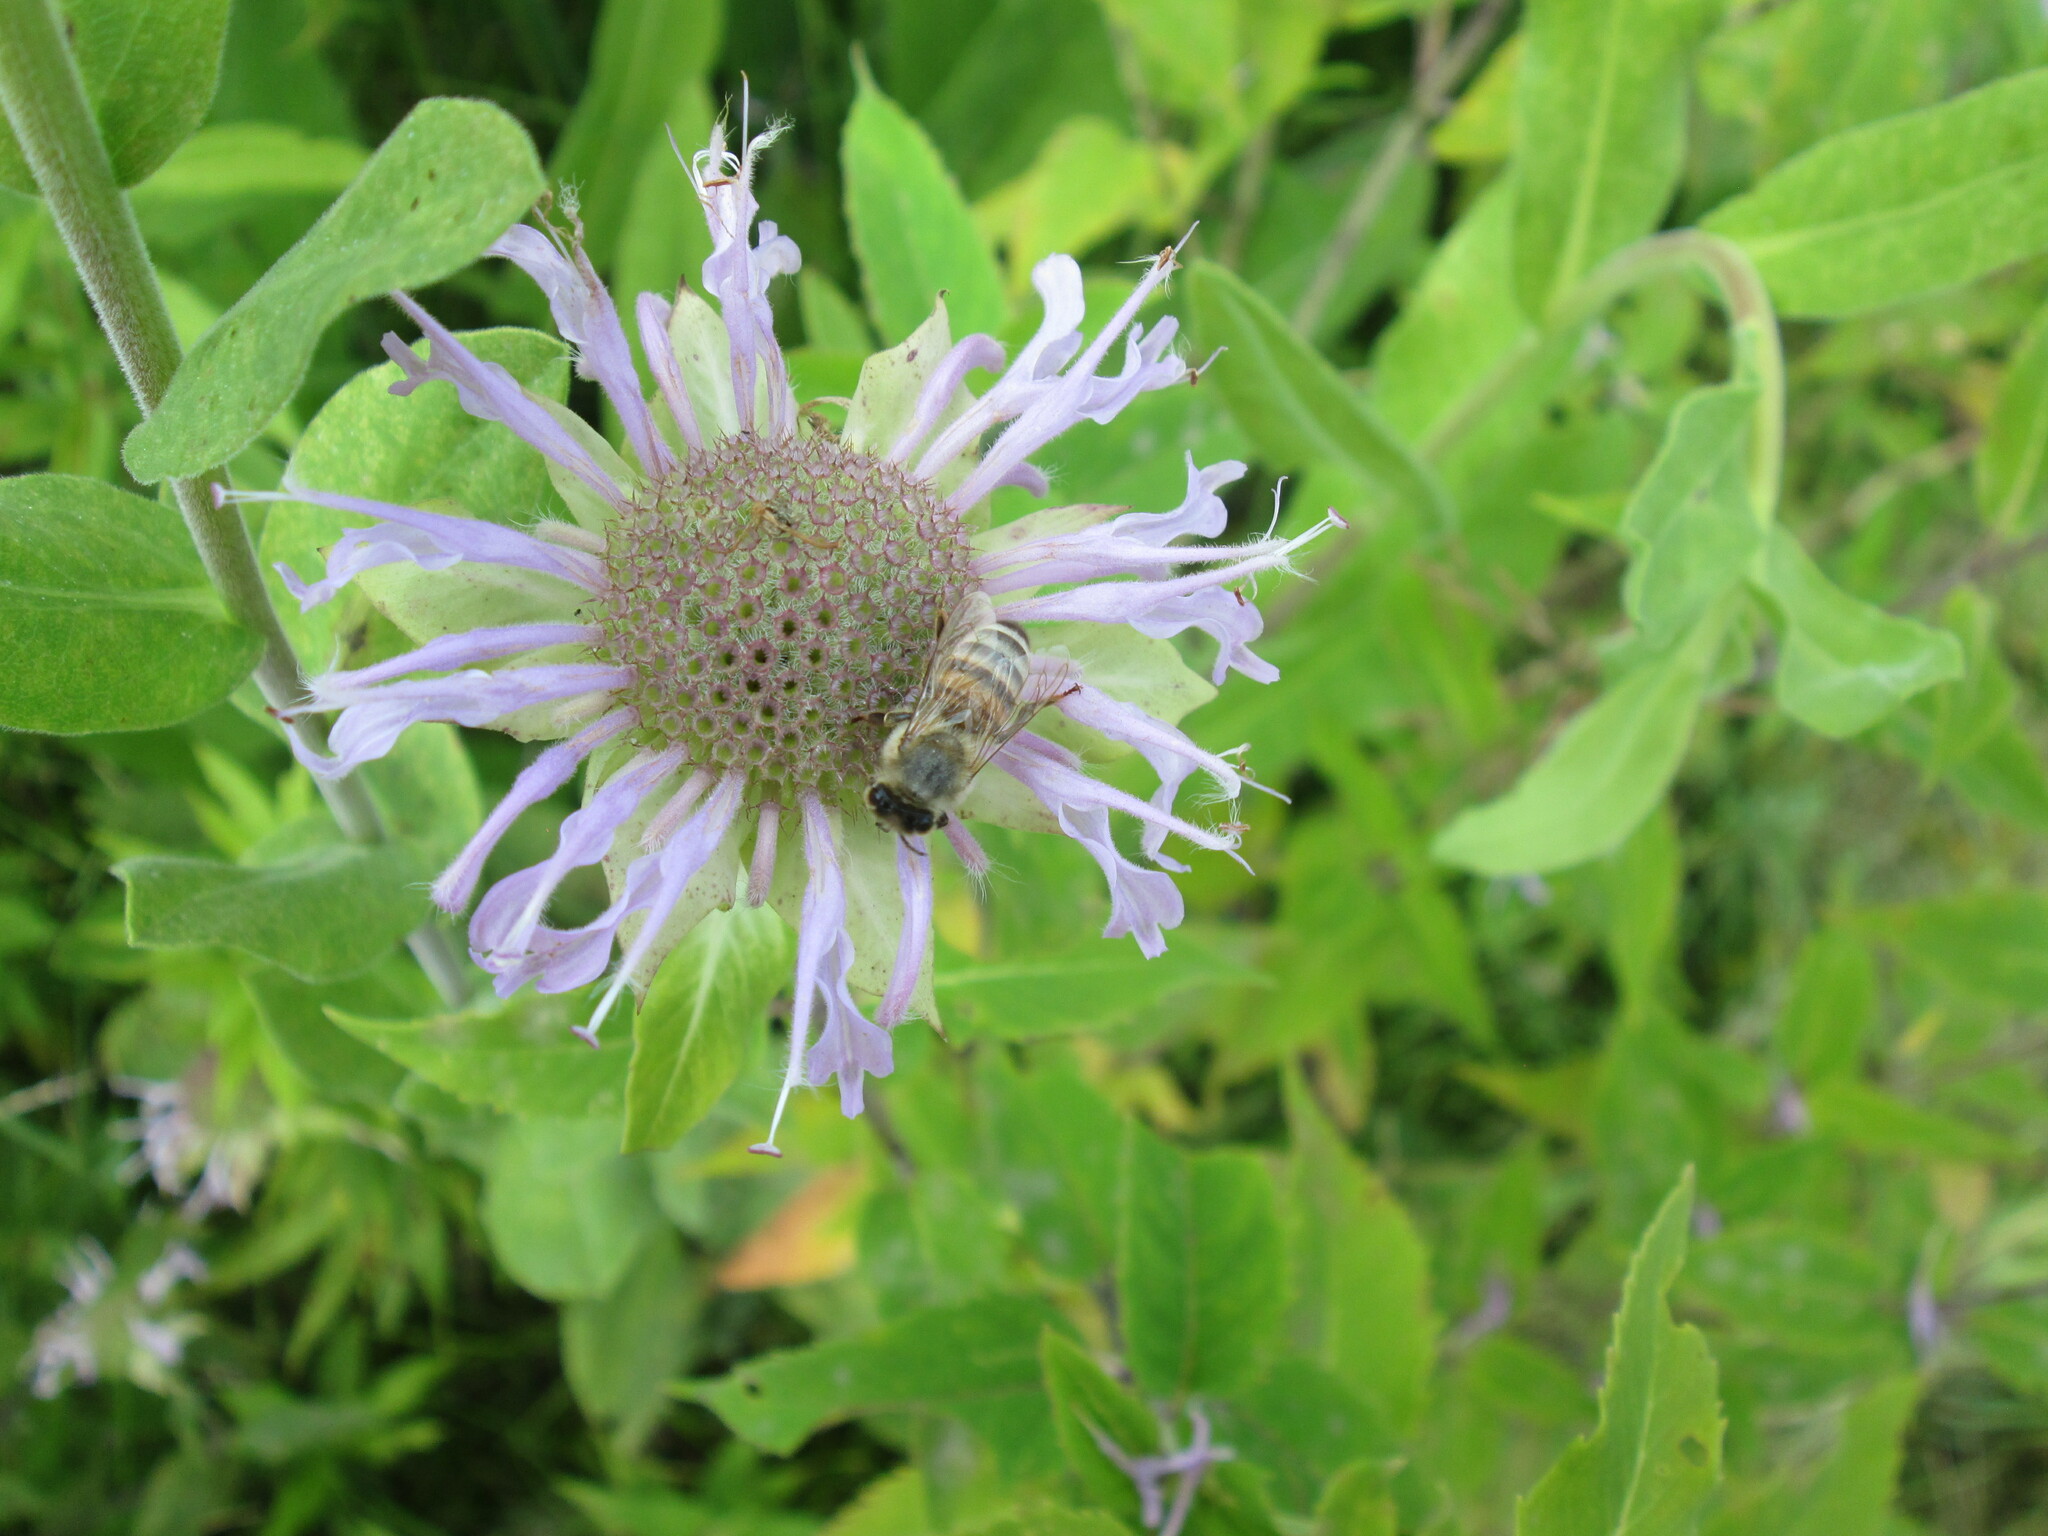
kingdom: Animalia
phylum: Arthropoda
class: Insecta
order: Hymenoptera
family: Apidae
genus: Apis
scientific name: Apis mellifera
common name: Honey bee
